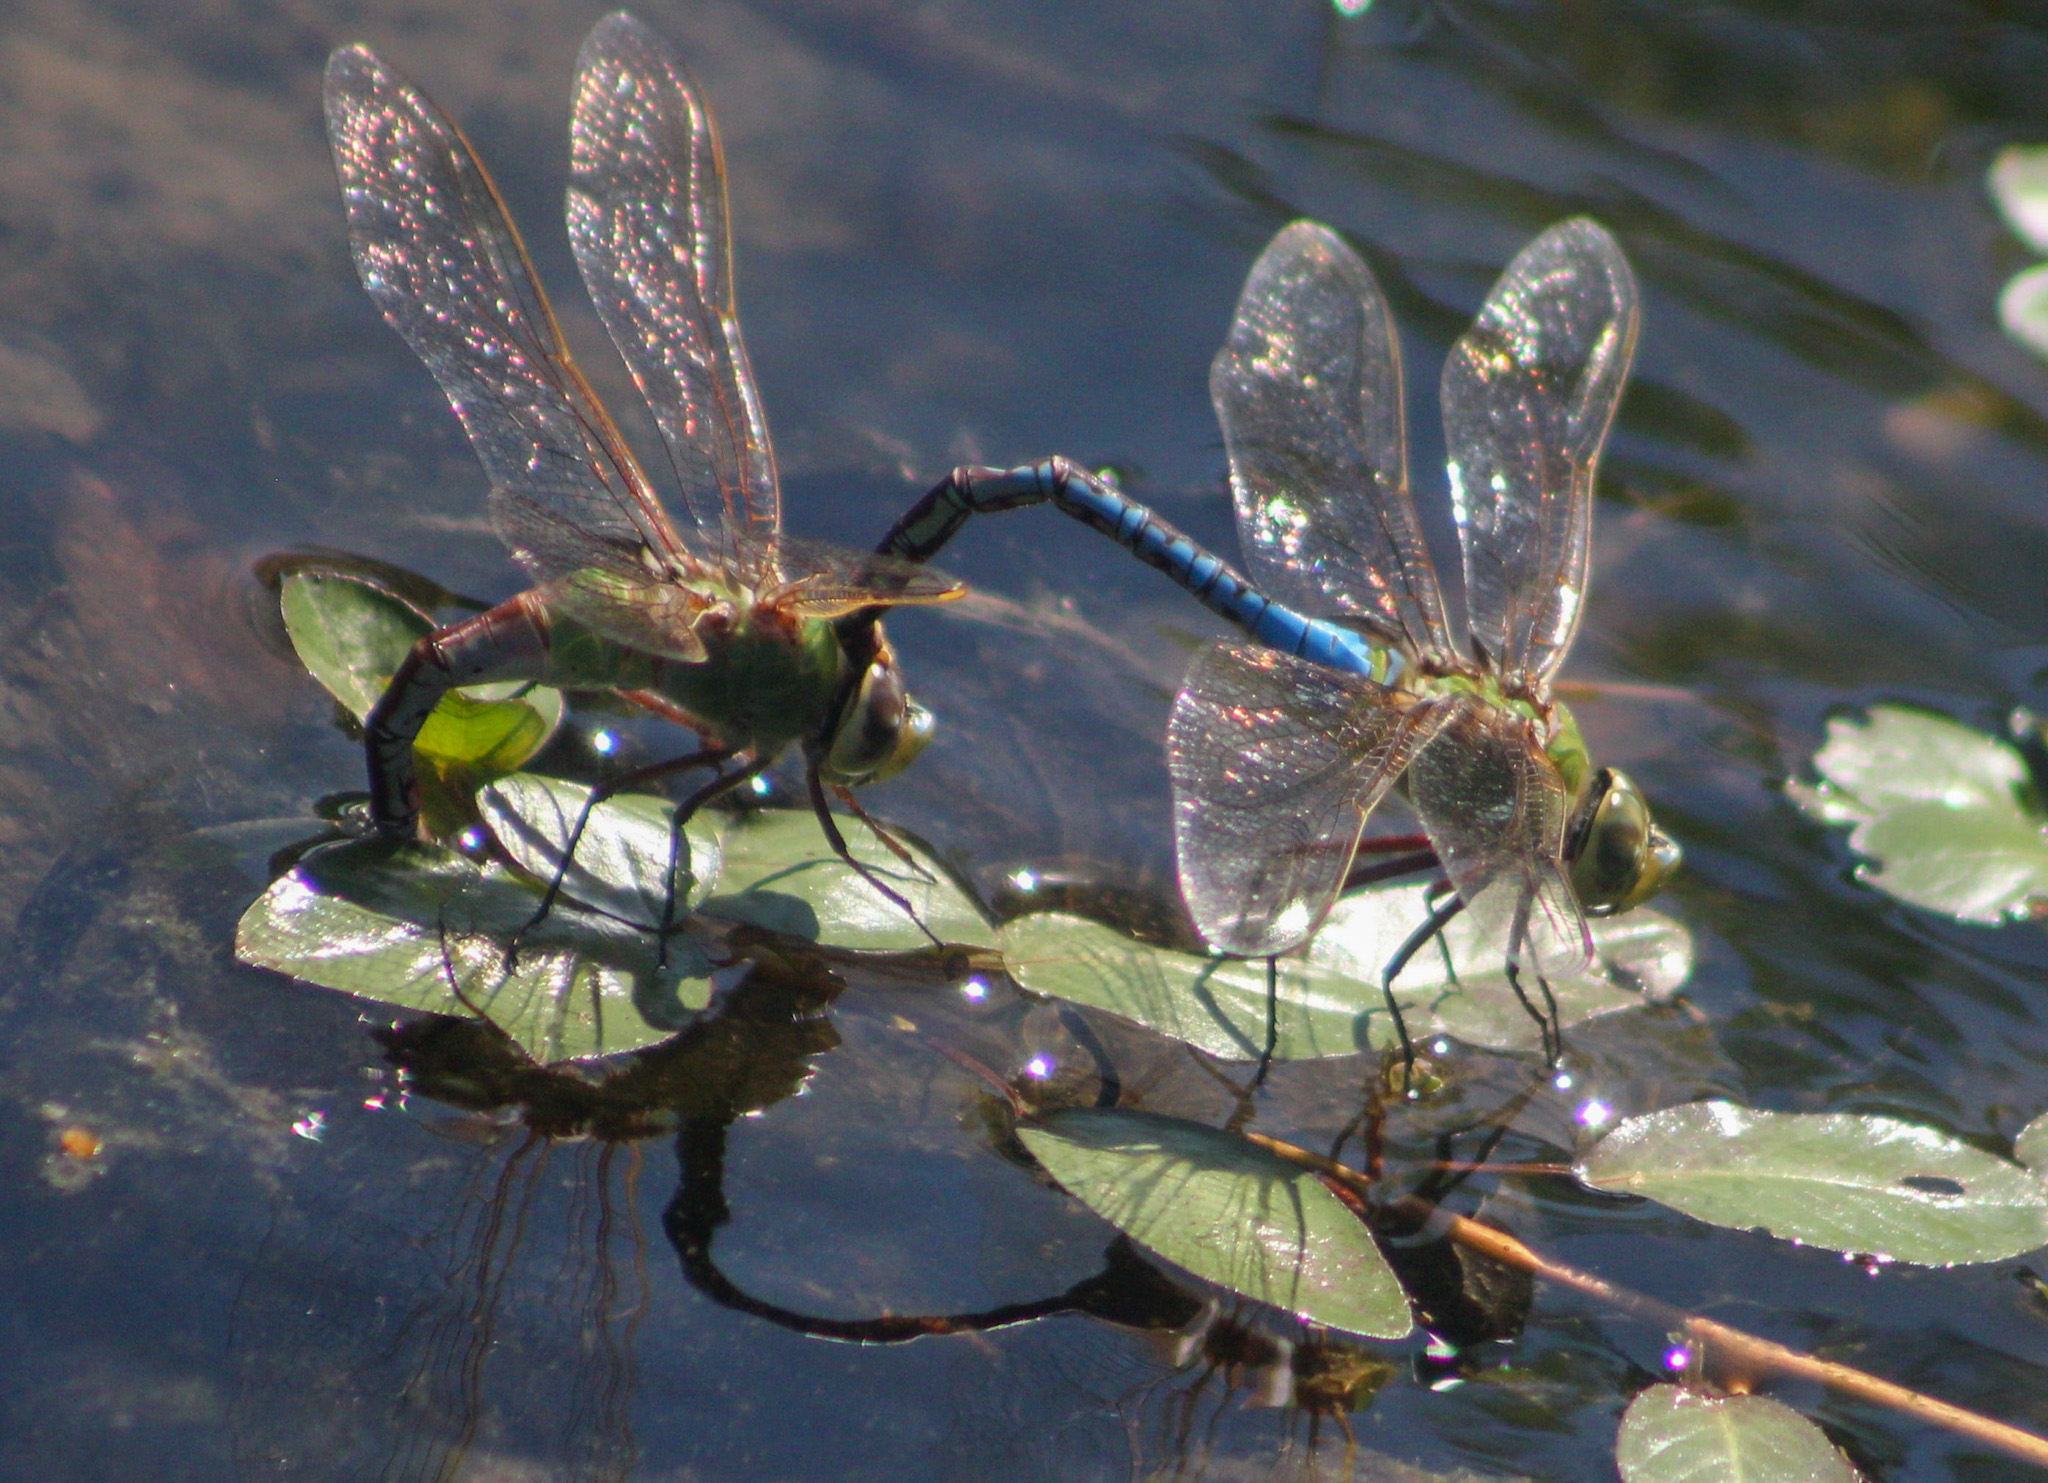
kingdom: Animalia
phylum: Arthropoda
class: Insecta
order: Odonata
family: Aeshnidae
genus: Anax
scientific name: Anax junius
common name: Common green darner
